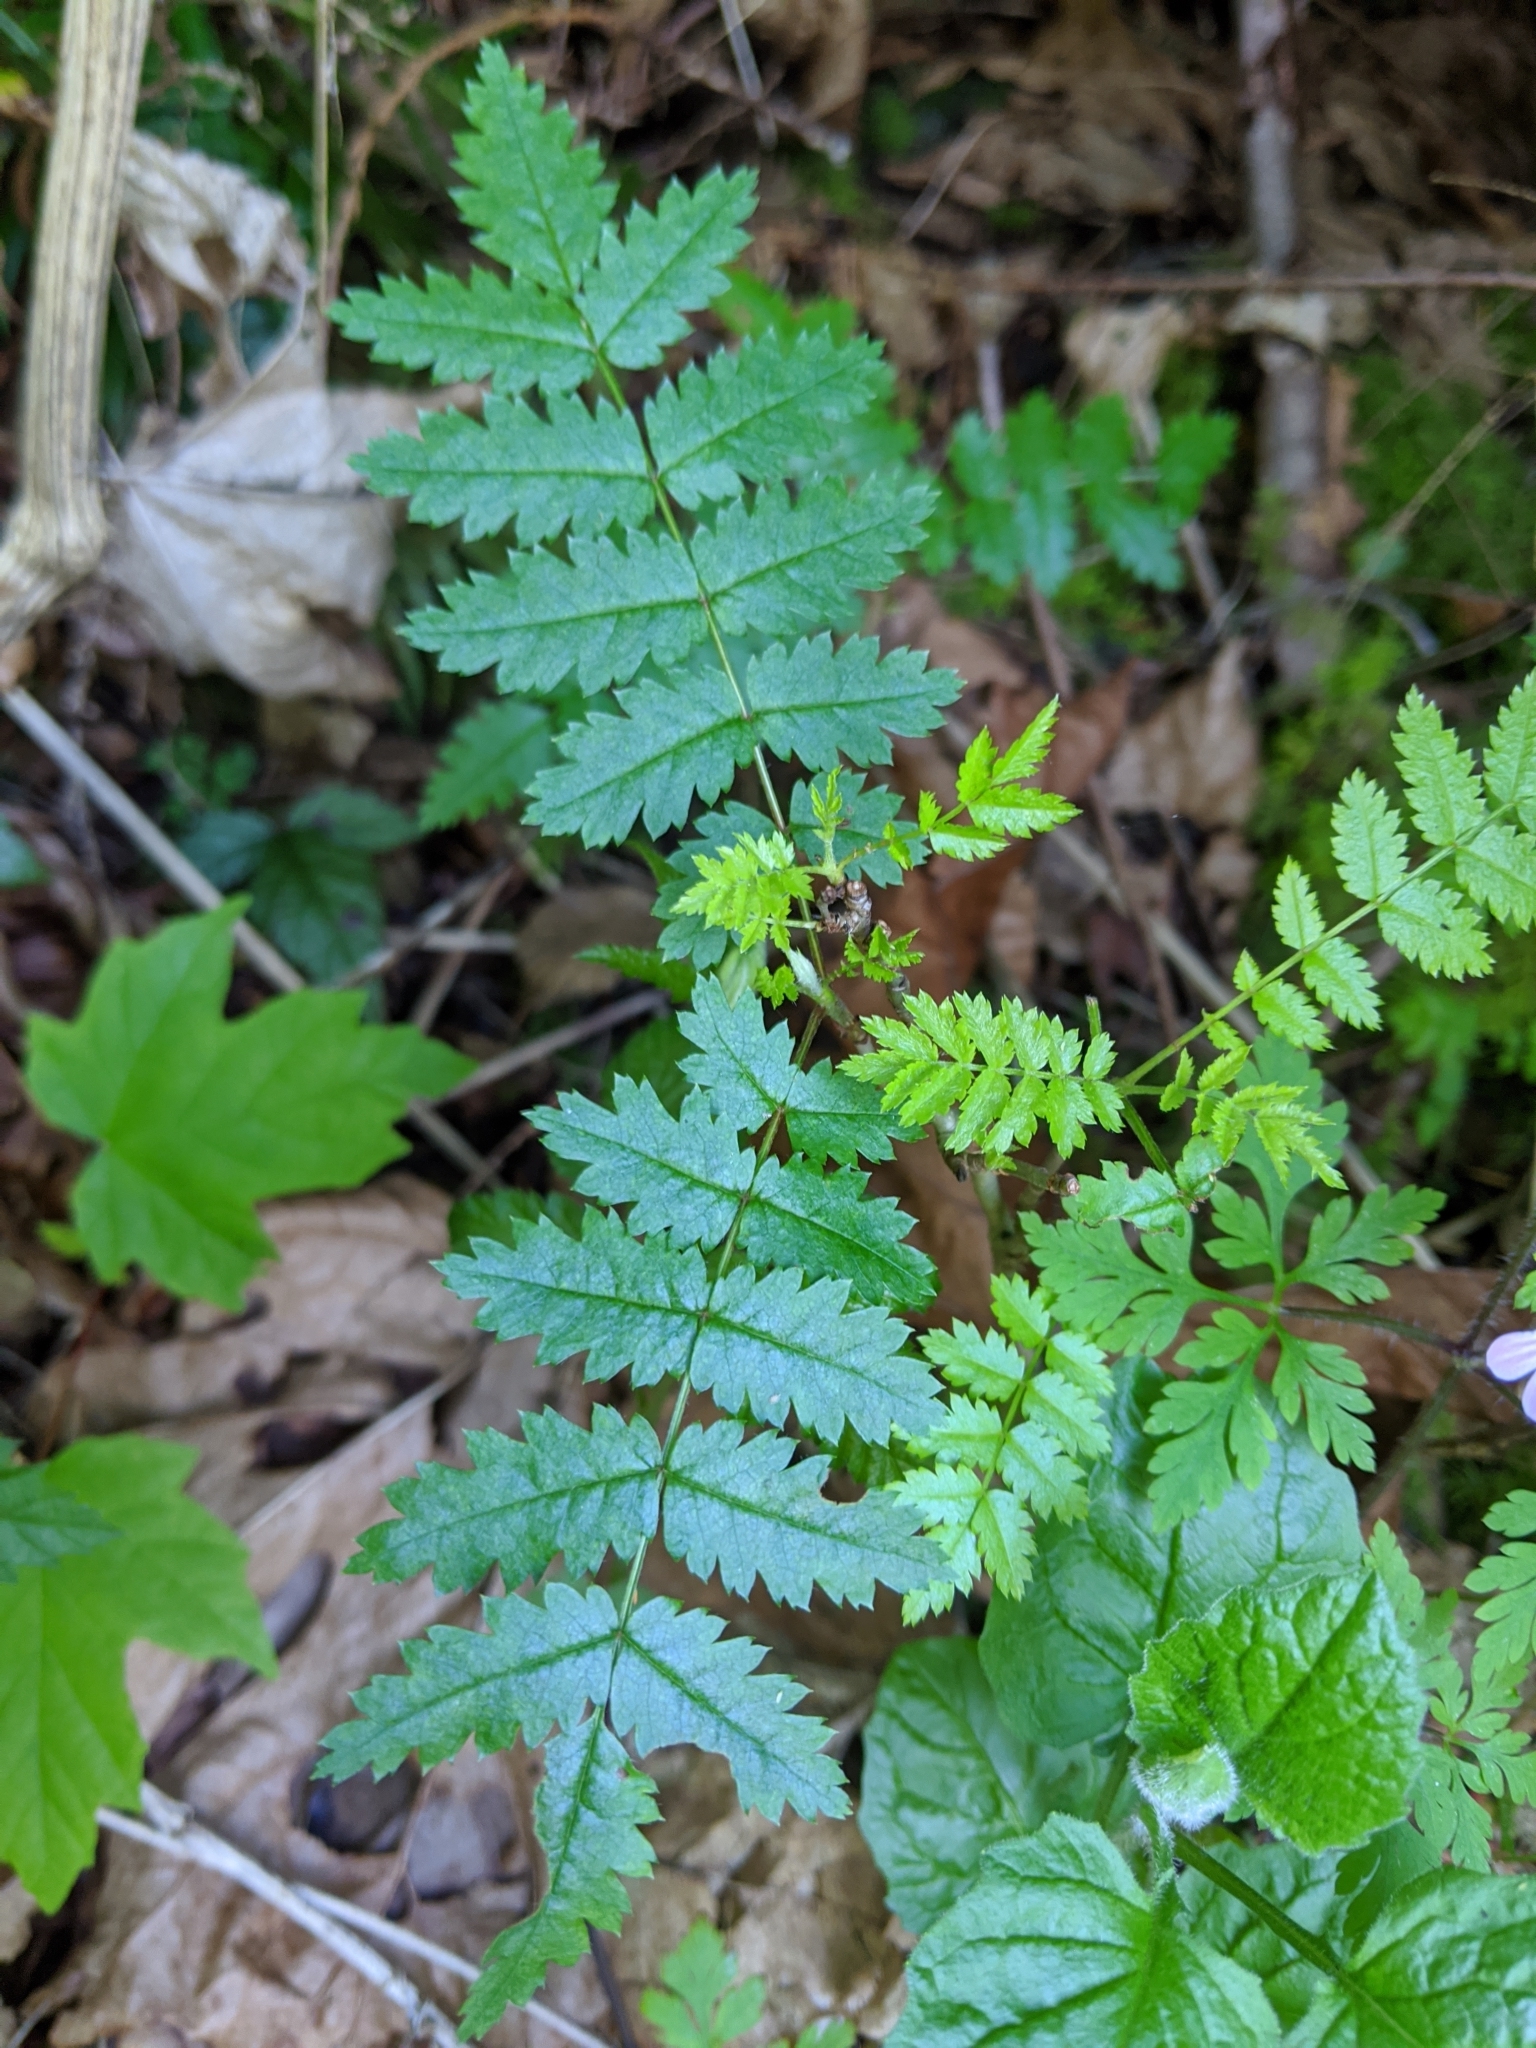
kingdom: Plantae
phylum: Tracheophyta
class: Magnoliopsida
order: Rosales
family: Rosaceae
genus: Sorbus
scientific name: Sorbus scopulina
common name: Greene's mountain-ash
